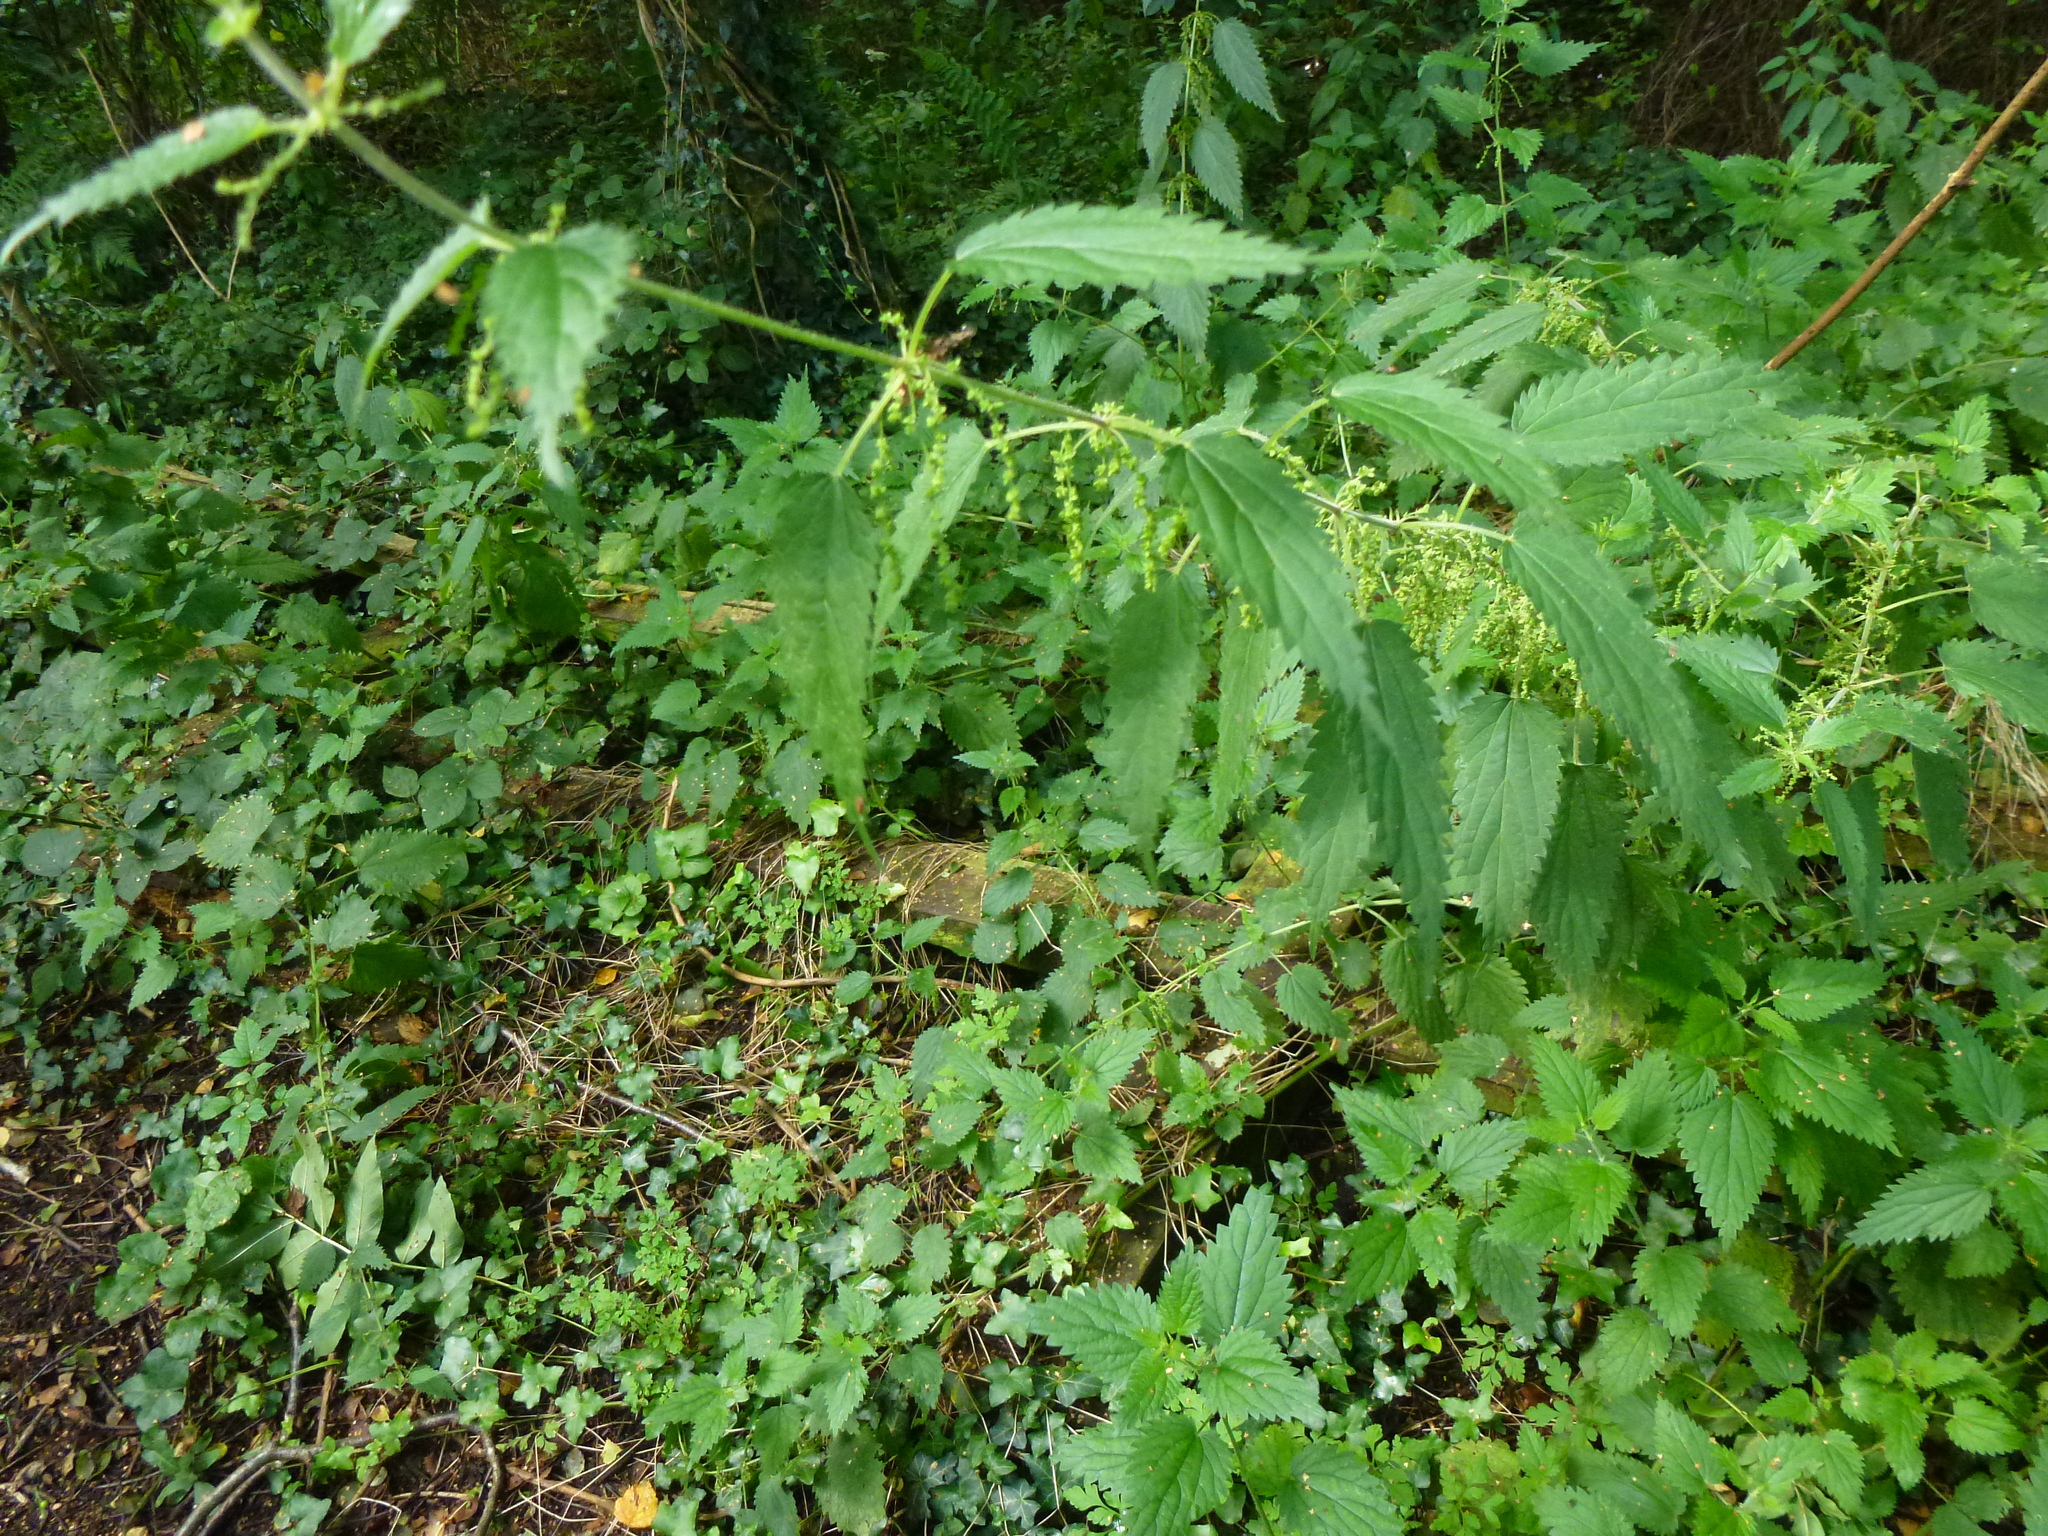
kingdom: Plantae
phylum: Tracheophyta
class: Magnoliopsida
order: Rosales
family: Urticaceae
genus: Urtica
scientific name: Urtica dioica
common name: Common nettle
